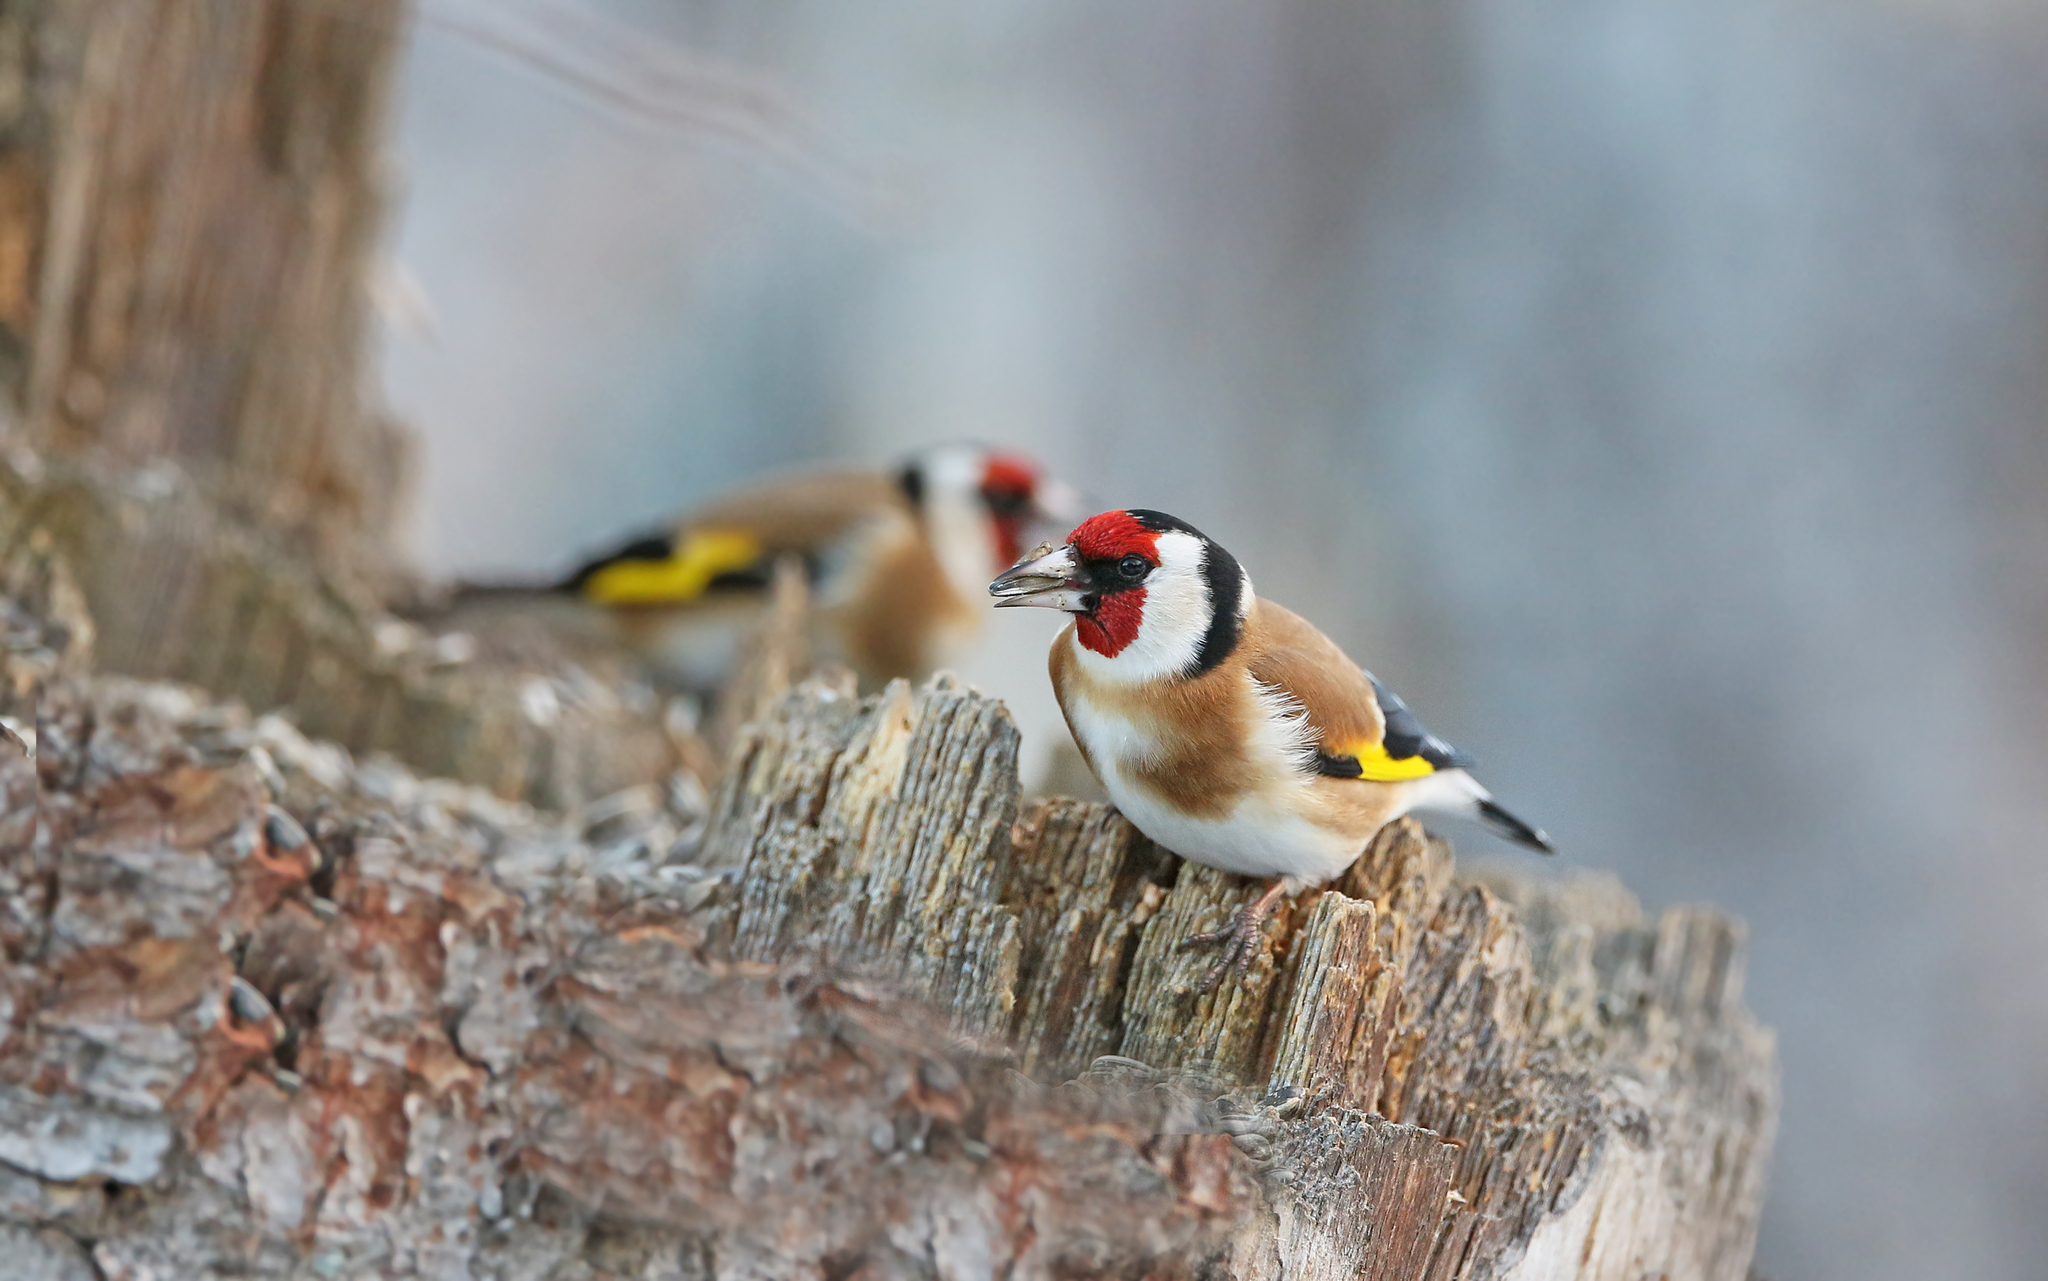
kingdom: Animalia
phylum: Chordata
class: Aves
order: Passeriformes
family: Fringillidae
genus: Carduelis
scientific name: Carduelis carduelis
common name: European goldfinch
